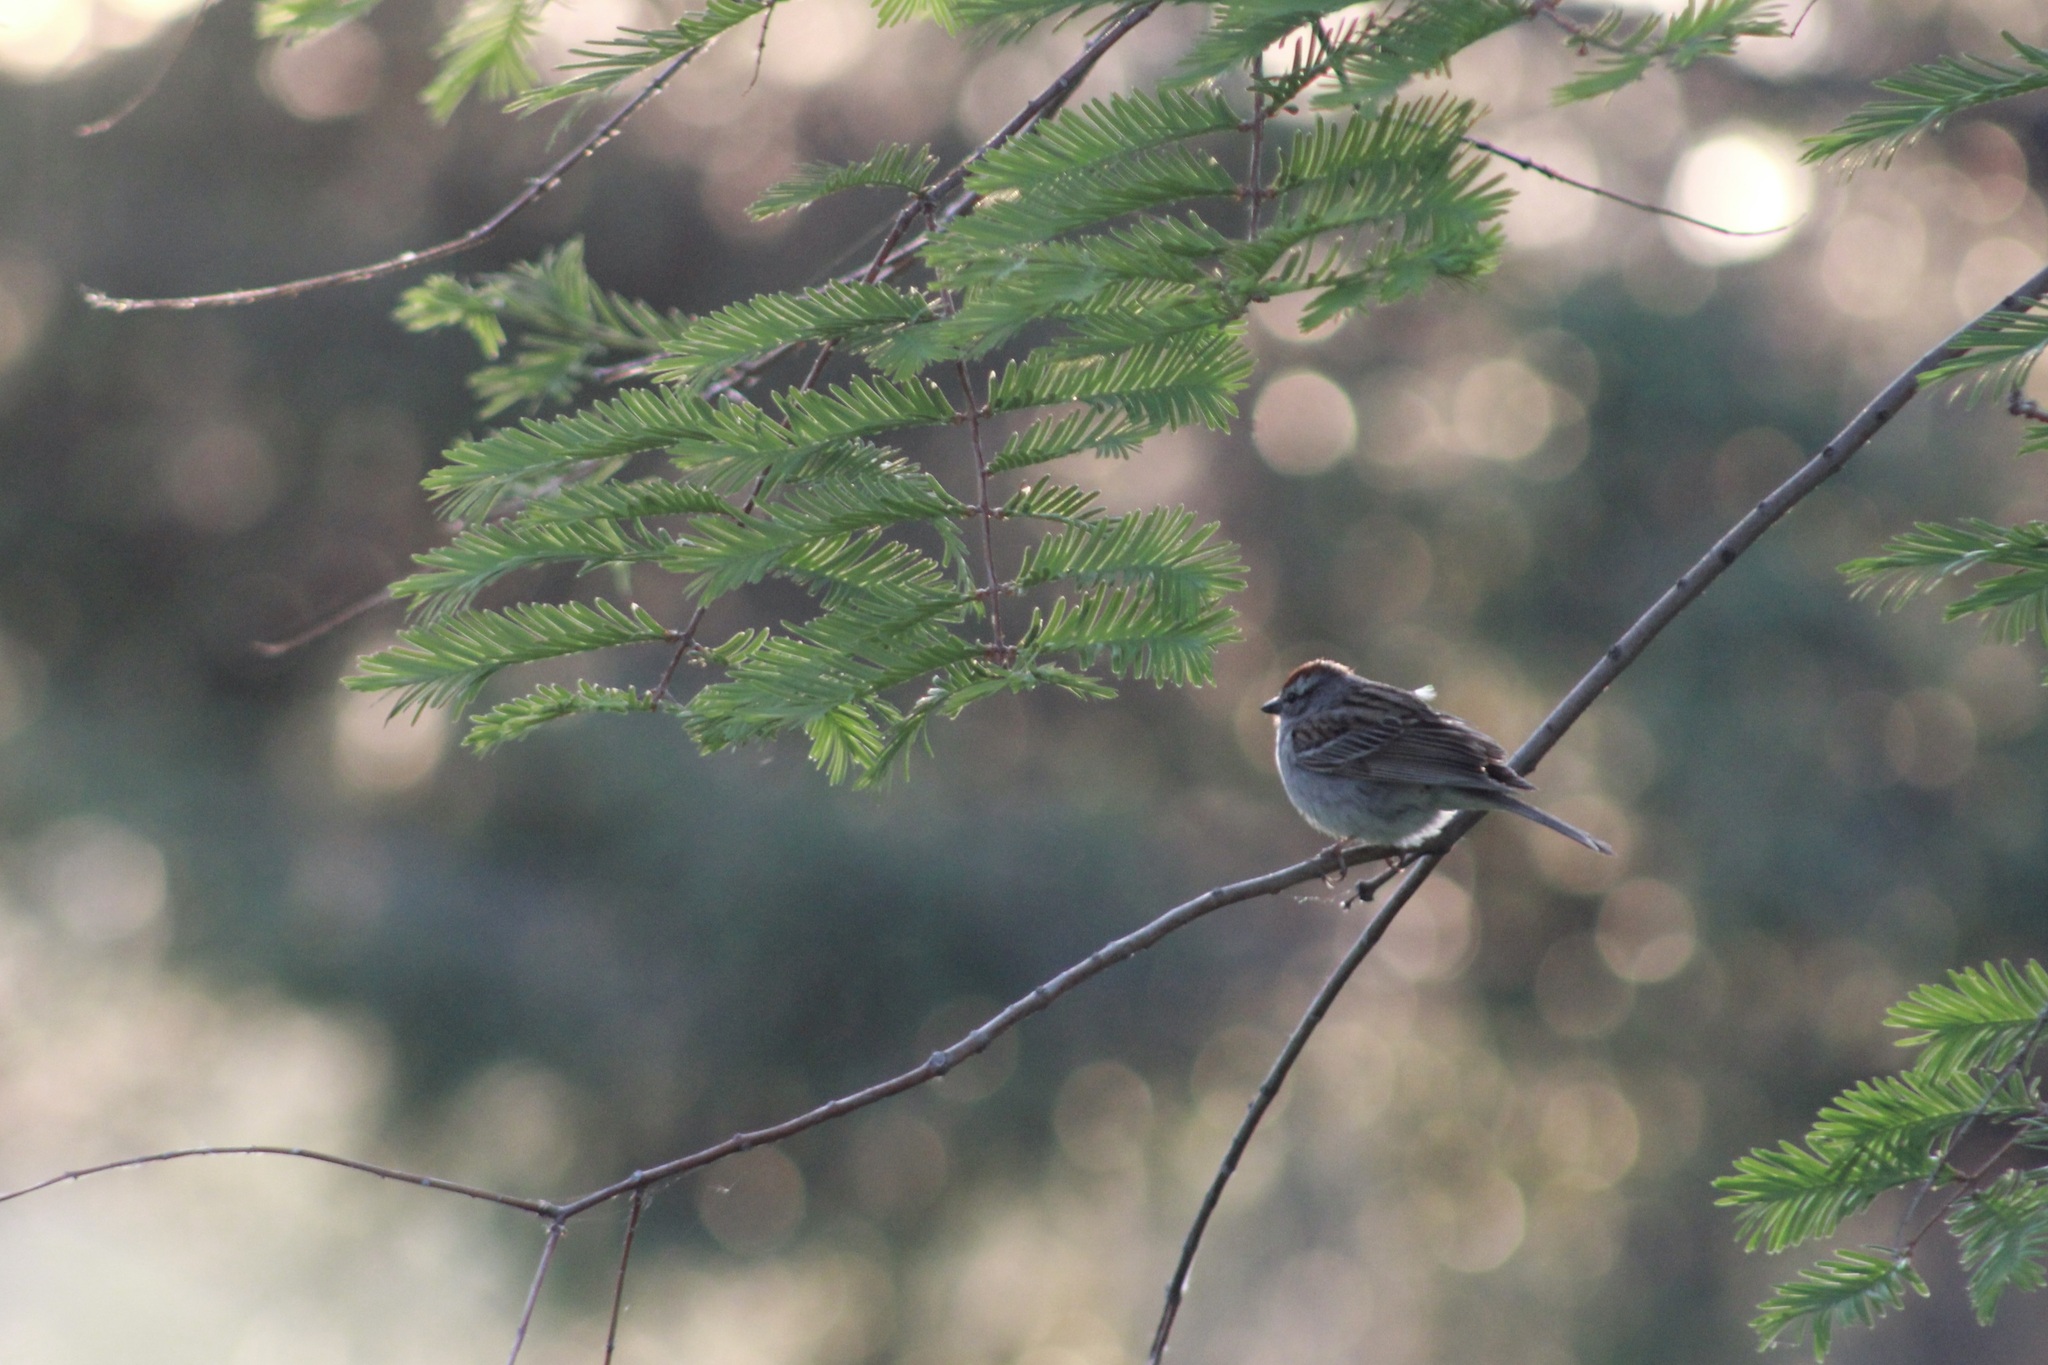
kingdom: Animalia
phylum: Chordata
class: Aves
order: Passeriformes
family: Passerellidae
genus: Spizella
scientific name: Spizella passerina
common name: Chipping sparrow
